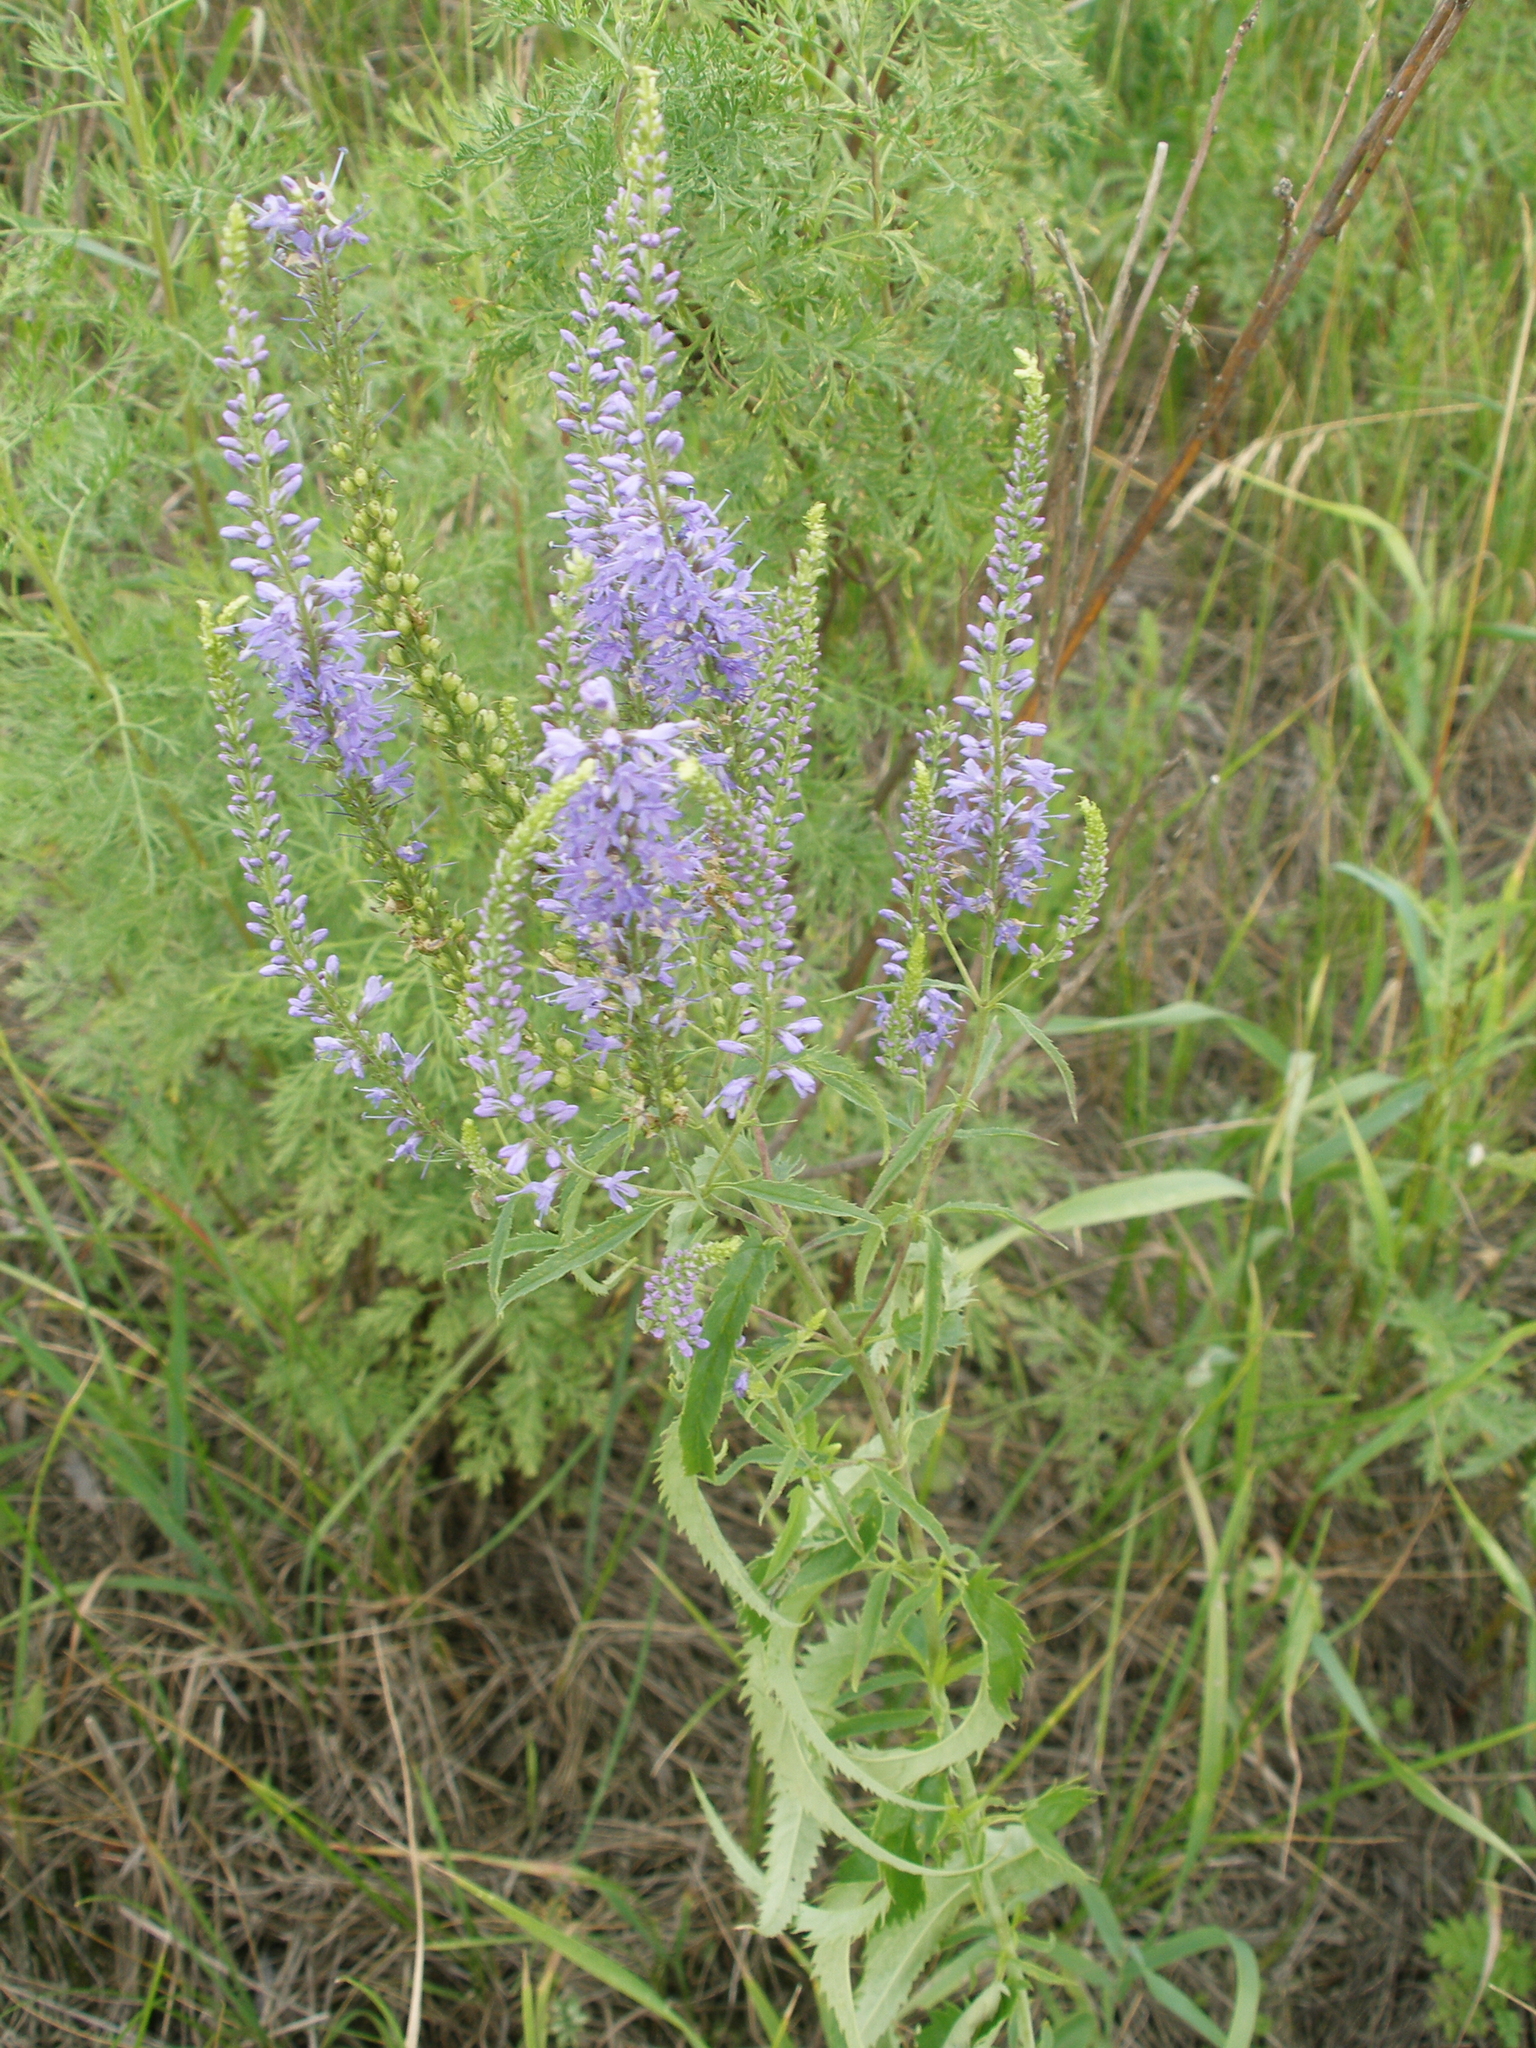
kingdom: Plantae
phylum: Tracheophyta
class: Magnoliopsida
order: Lamiales
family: Plantaginaceae
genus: Veronica
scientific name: Veronica longifolia
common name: Garden speedwell
